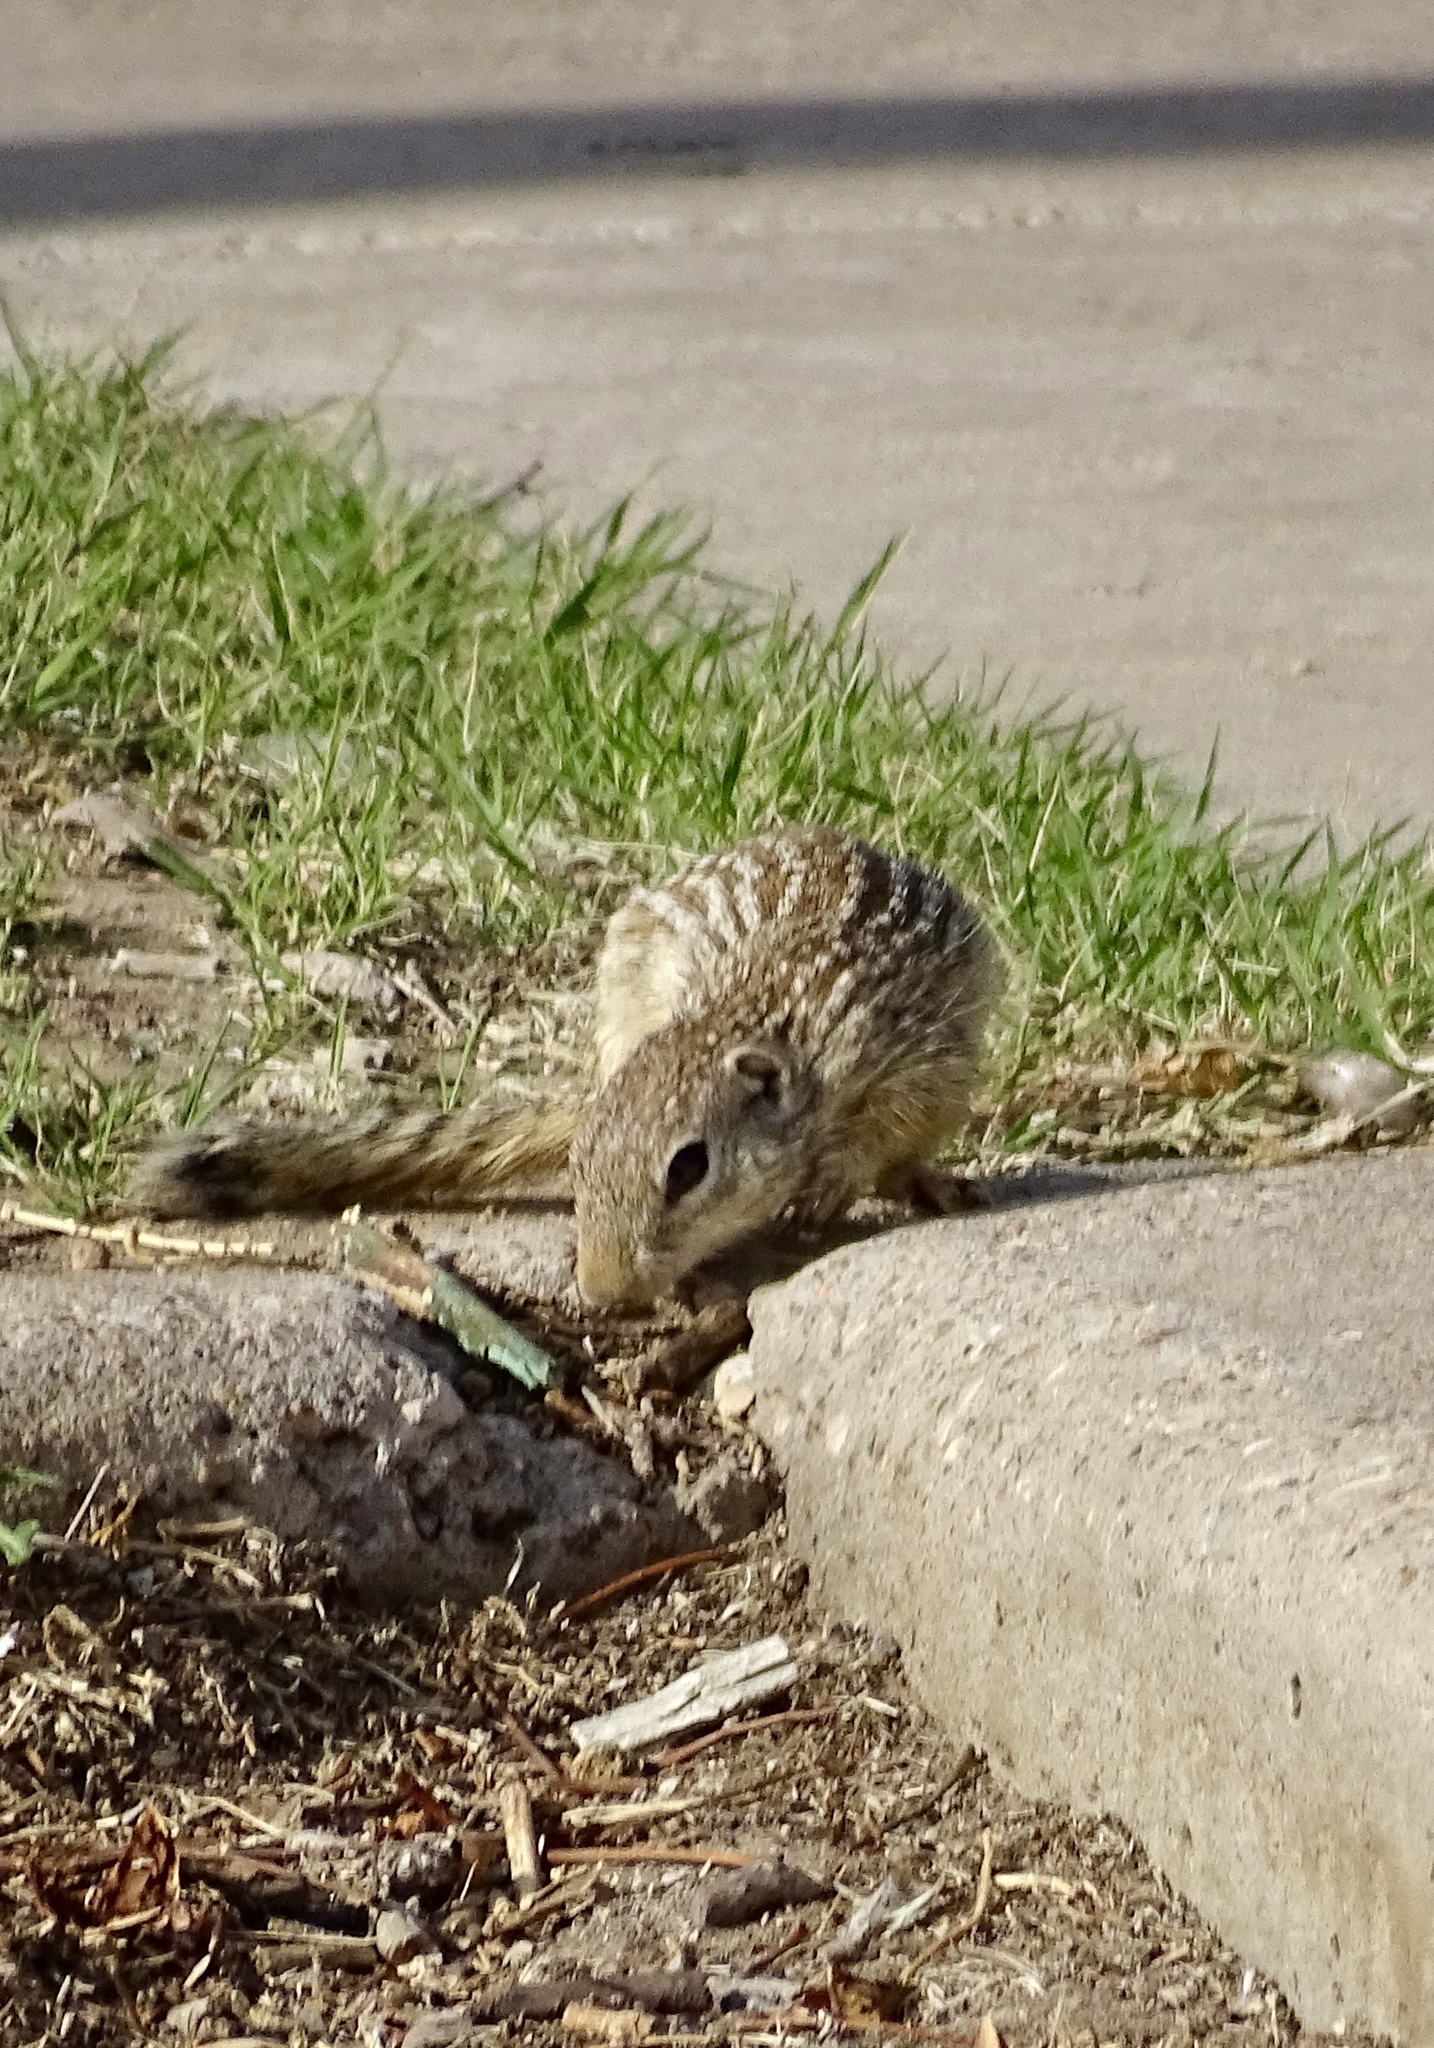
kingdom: Animalia
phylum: Chordata
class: Mammalia
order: Rodentia
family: Sciuridae
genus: Ictidomys
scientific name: Ictidomys parvidens
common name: Rio grande ground squirrel
